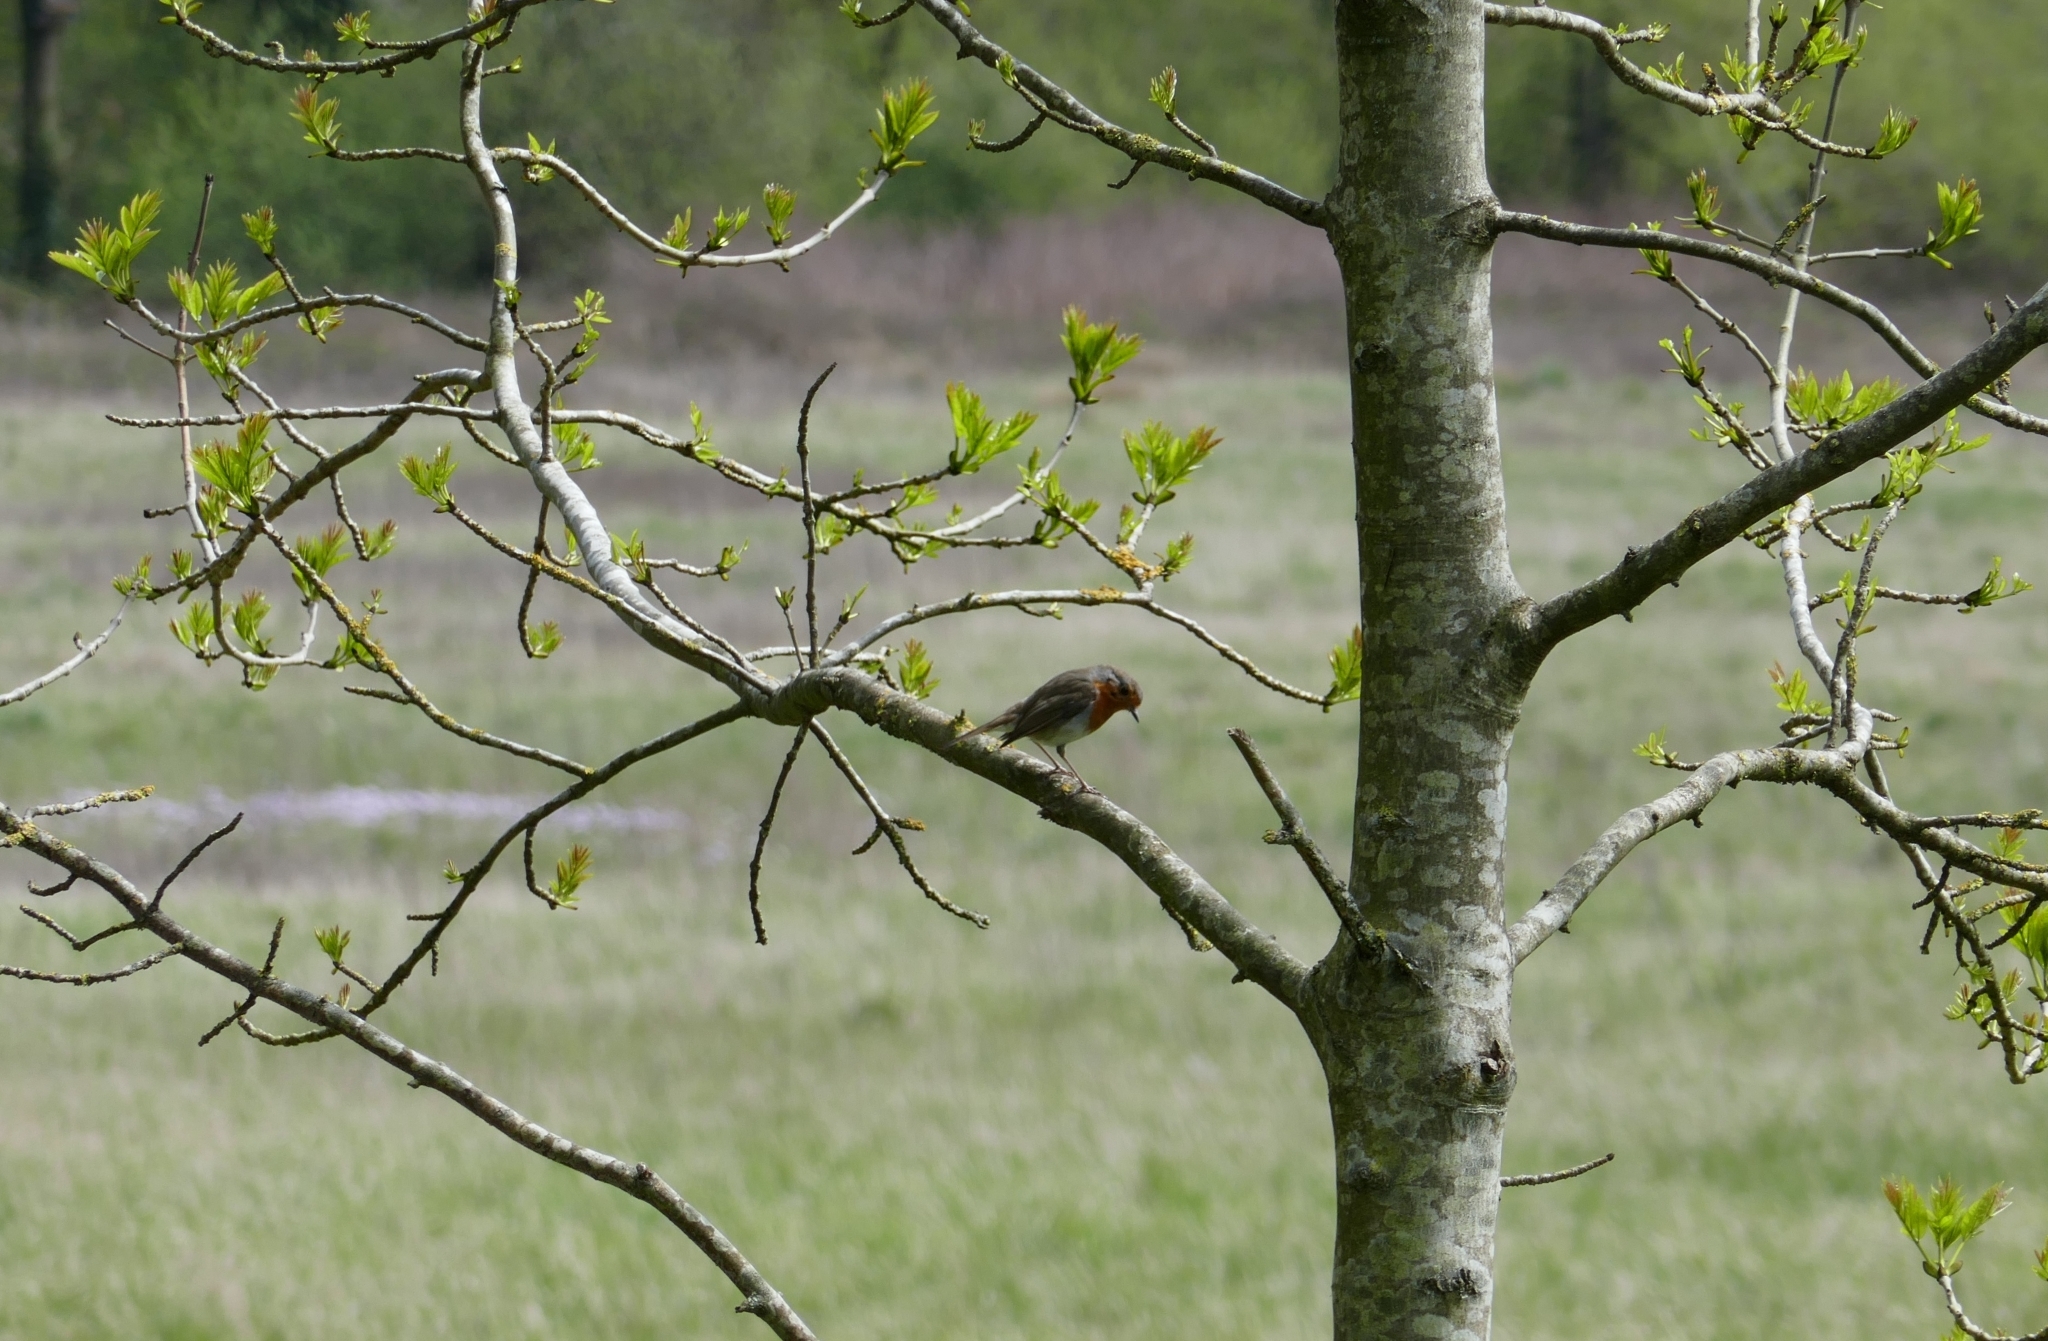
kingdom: Animalia
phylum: Chordata
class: Aves
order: Passeriformes
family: Muscicapidae
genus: Erithacus
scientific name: Erithacus rubecula
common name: European robin
